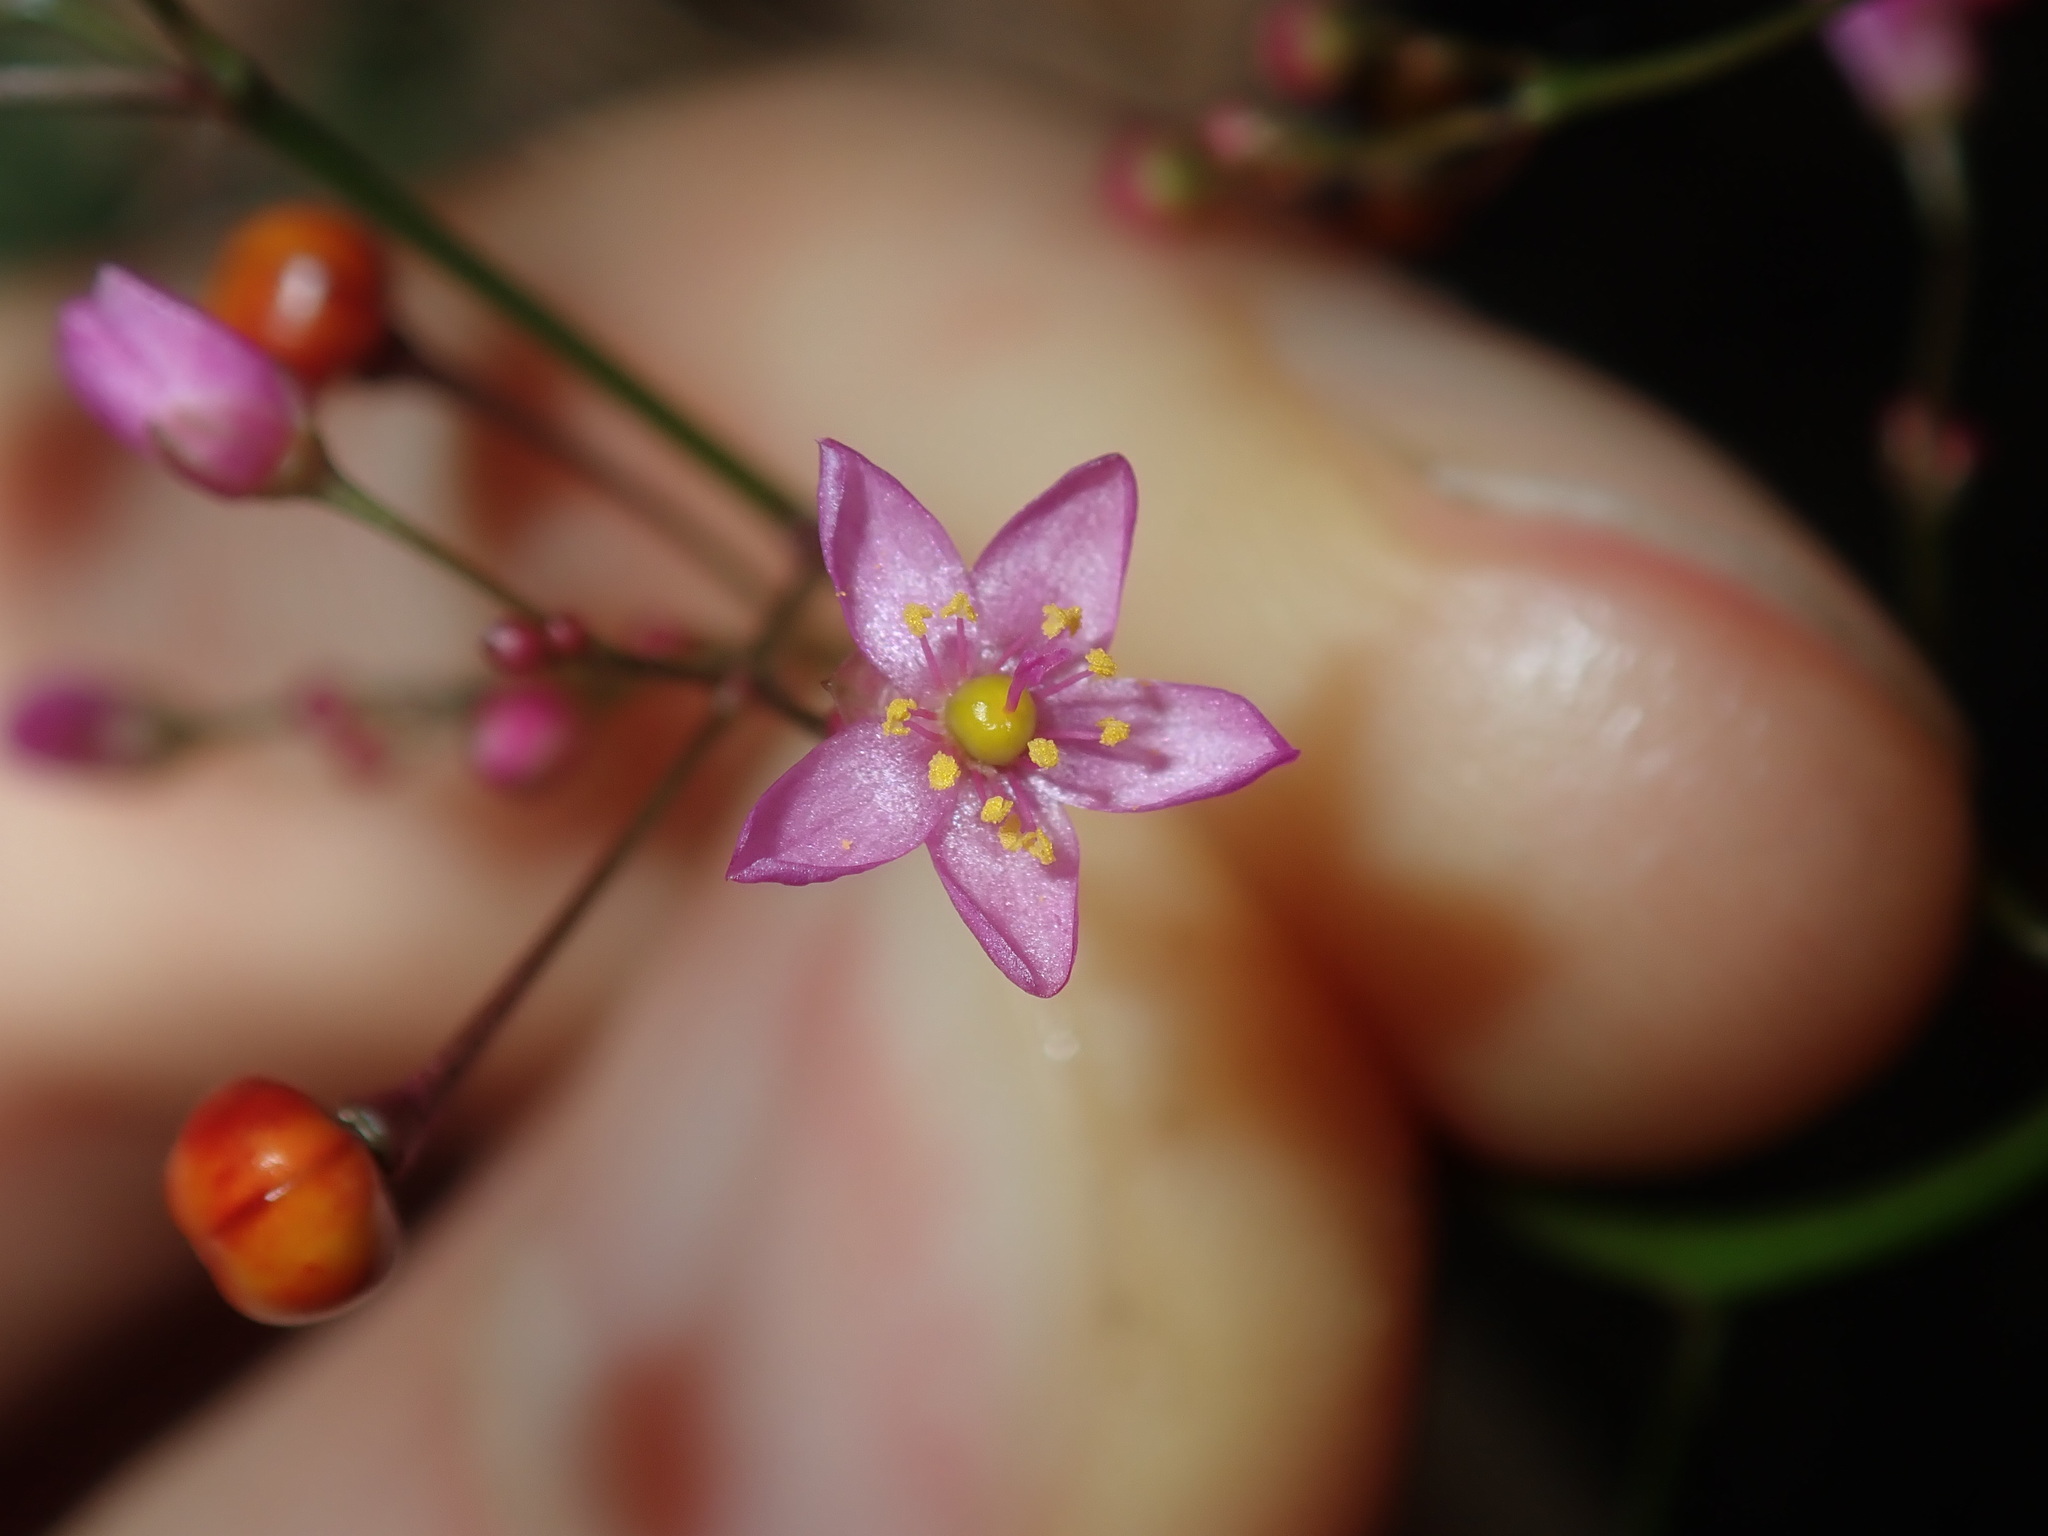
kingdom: Plantae
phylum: Tracheophyta
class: Magnoliopsida
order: Caryophyllales
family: Talinaceae
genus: Talinum
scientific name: Talinum paniculatum
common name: Jewels of opar
